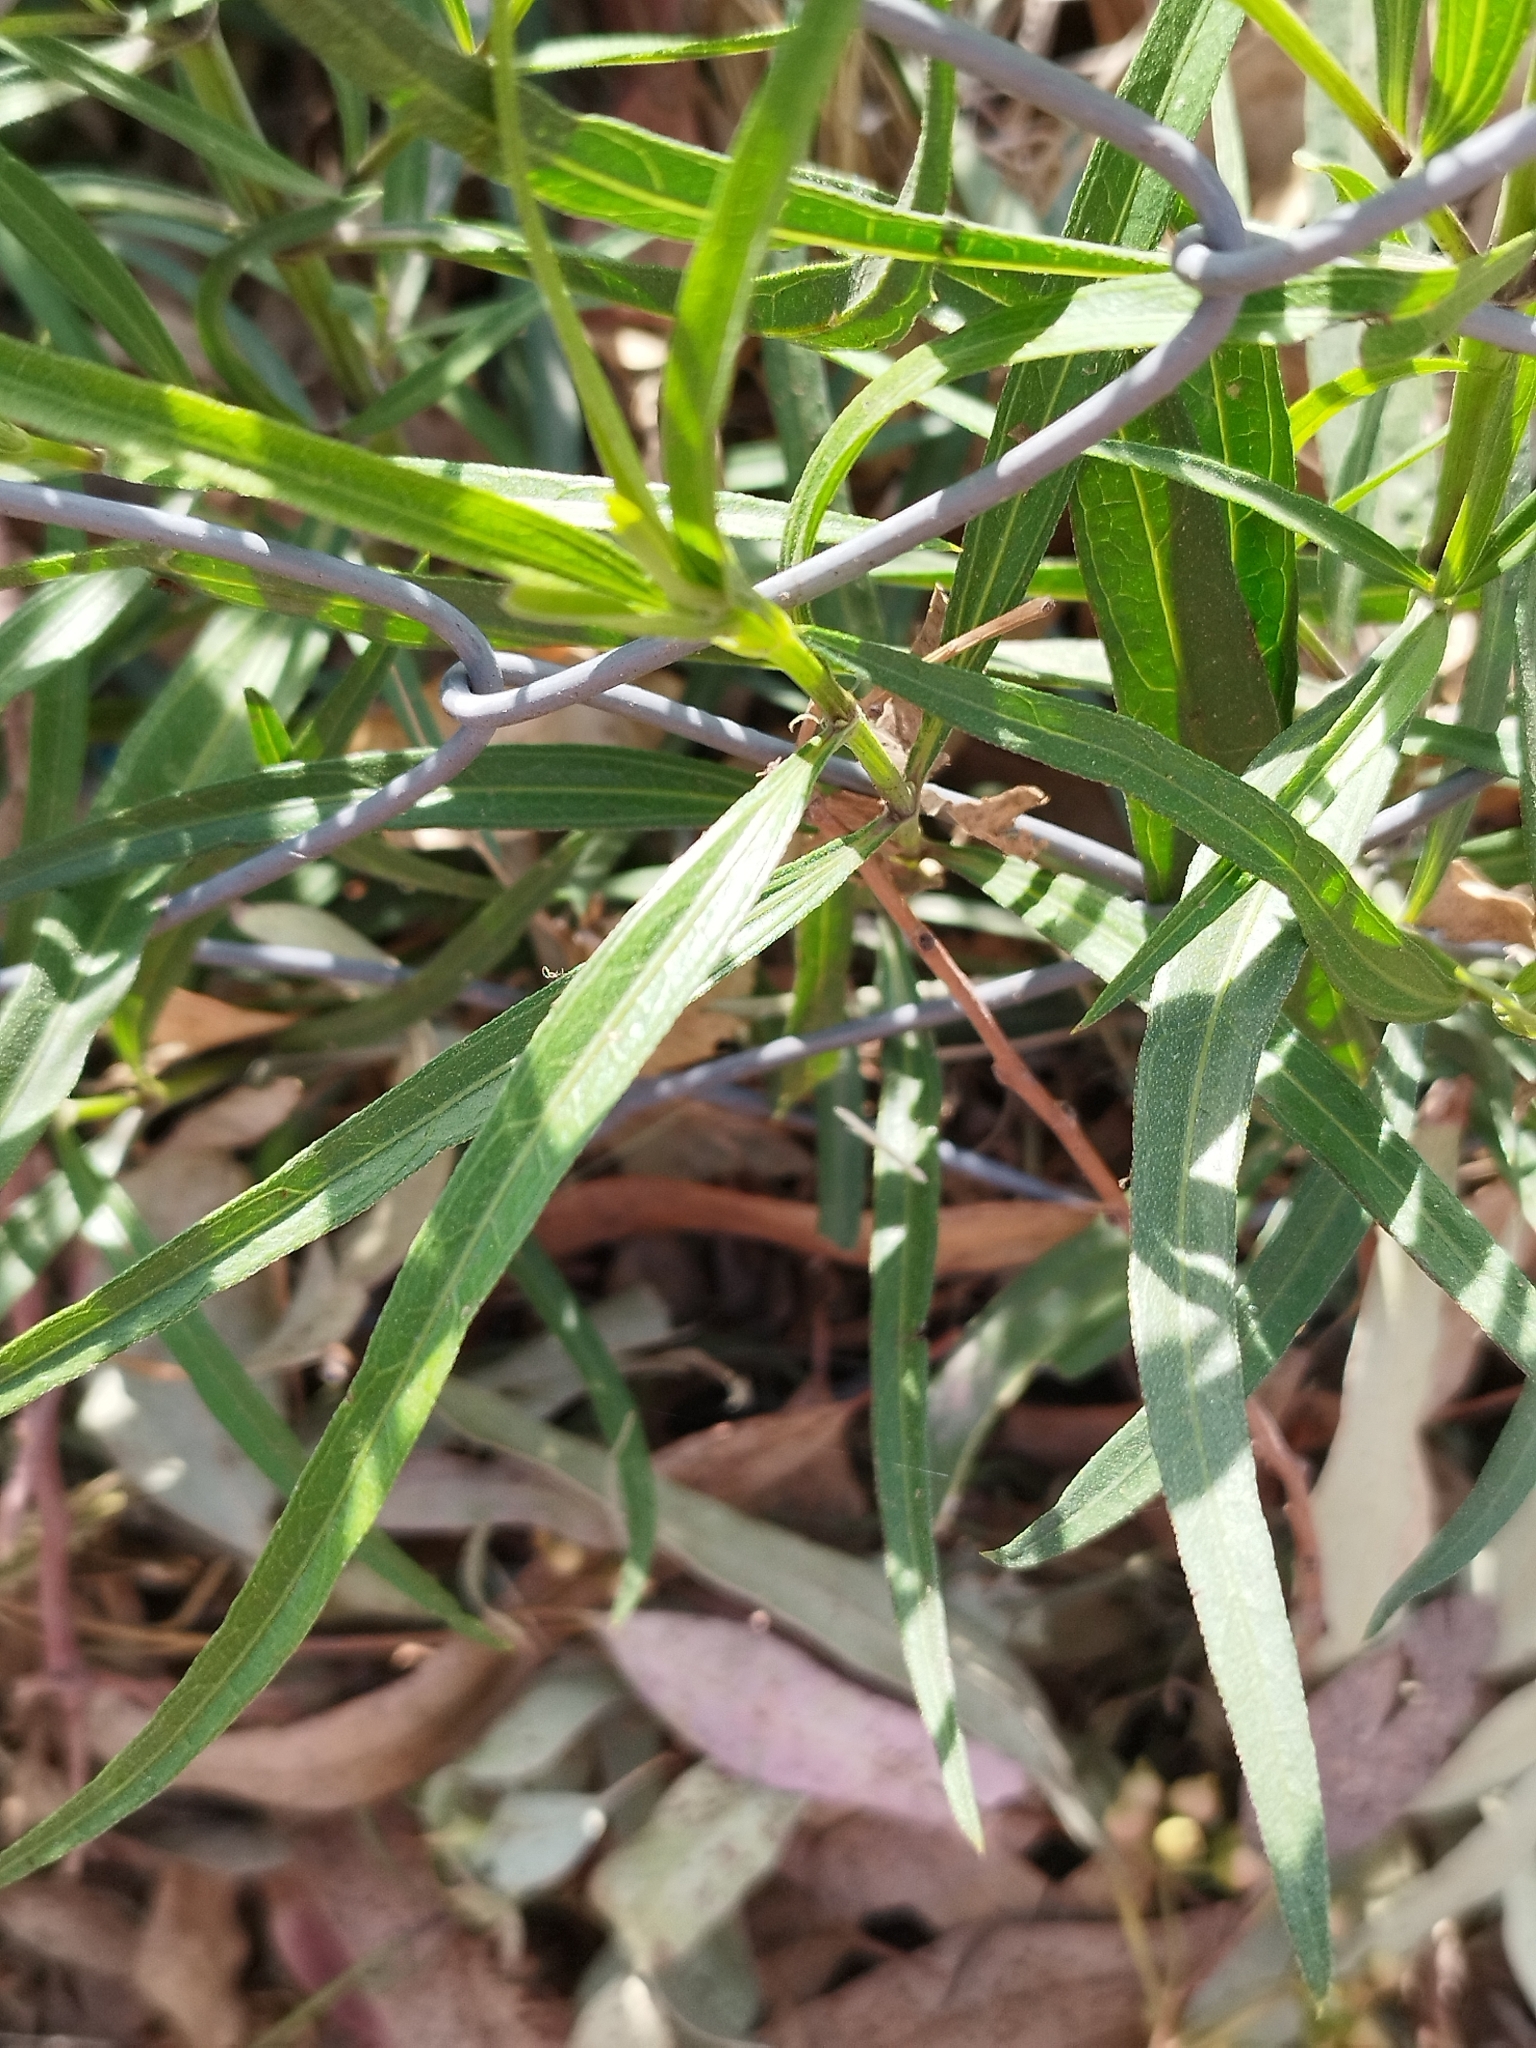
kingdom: Plantae
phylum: Tracheophyta
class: Magnoliopsida
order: Asterales
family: Asteraceae
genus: Pascalia
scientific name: Pascalia glauca
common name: Beach creeping oxeye
